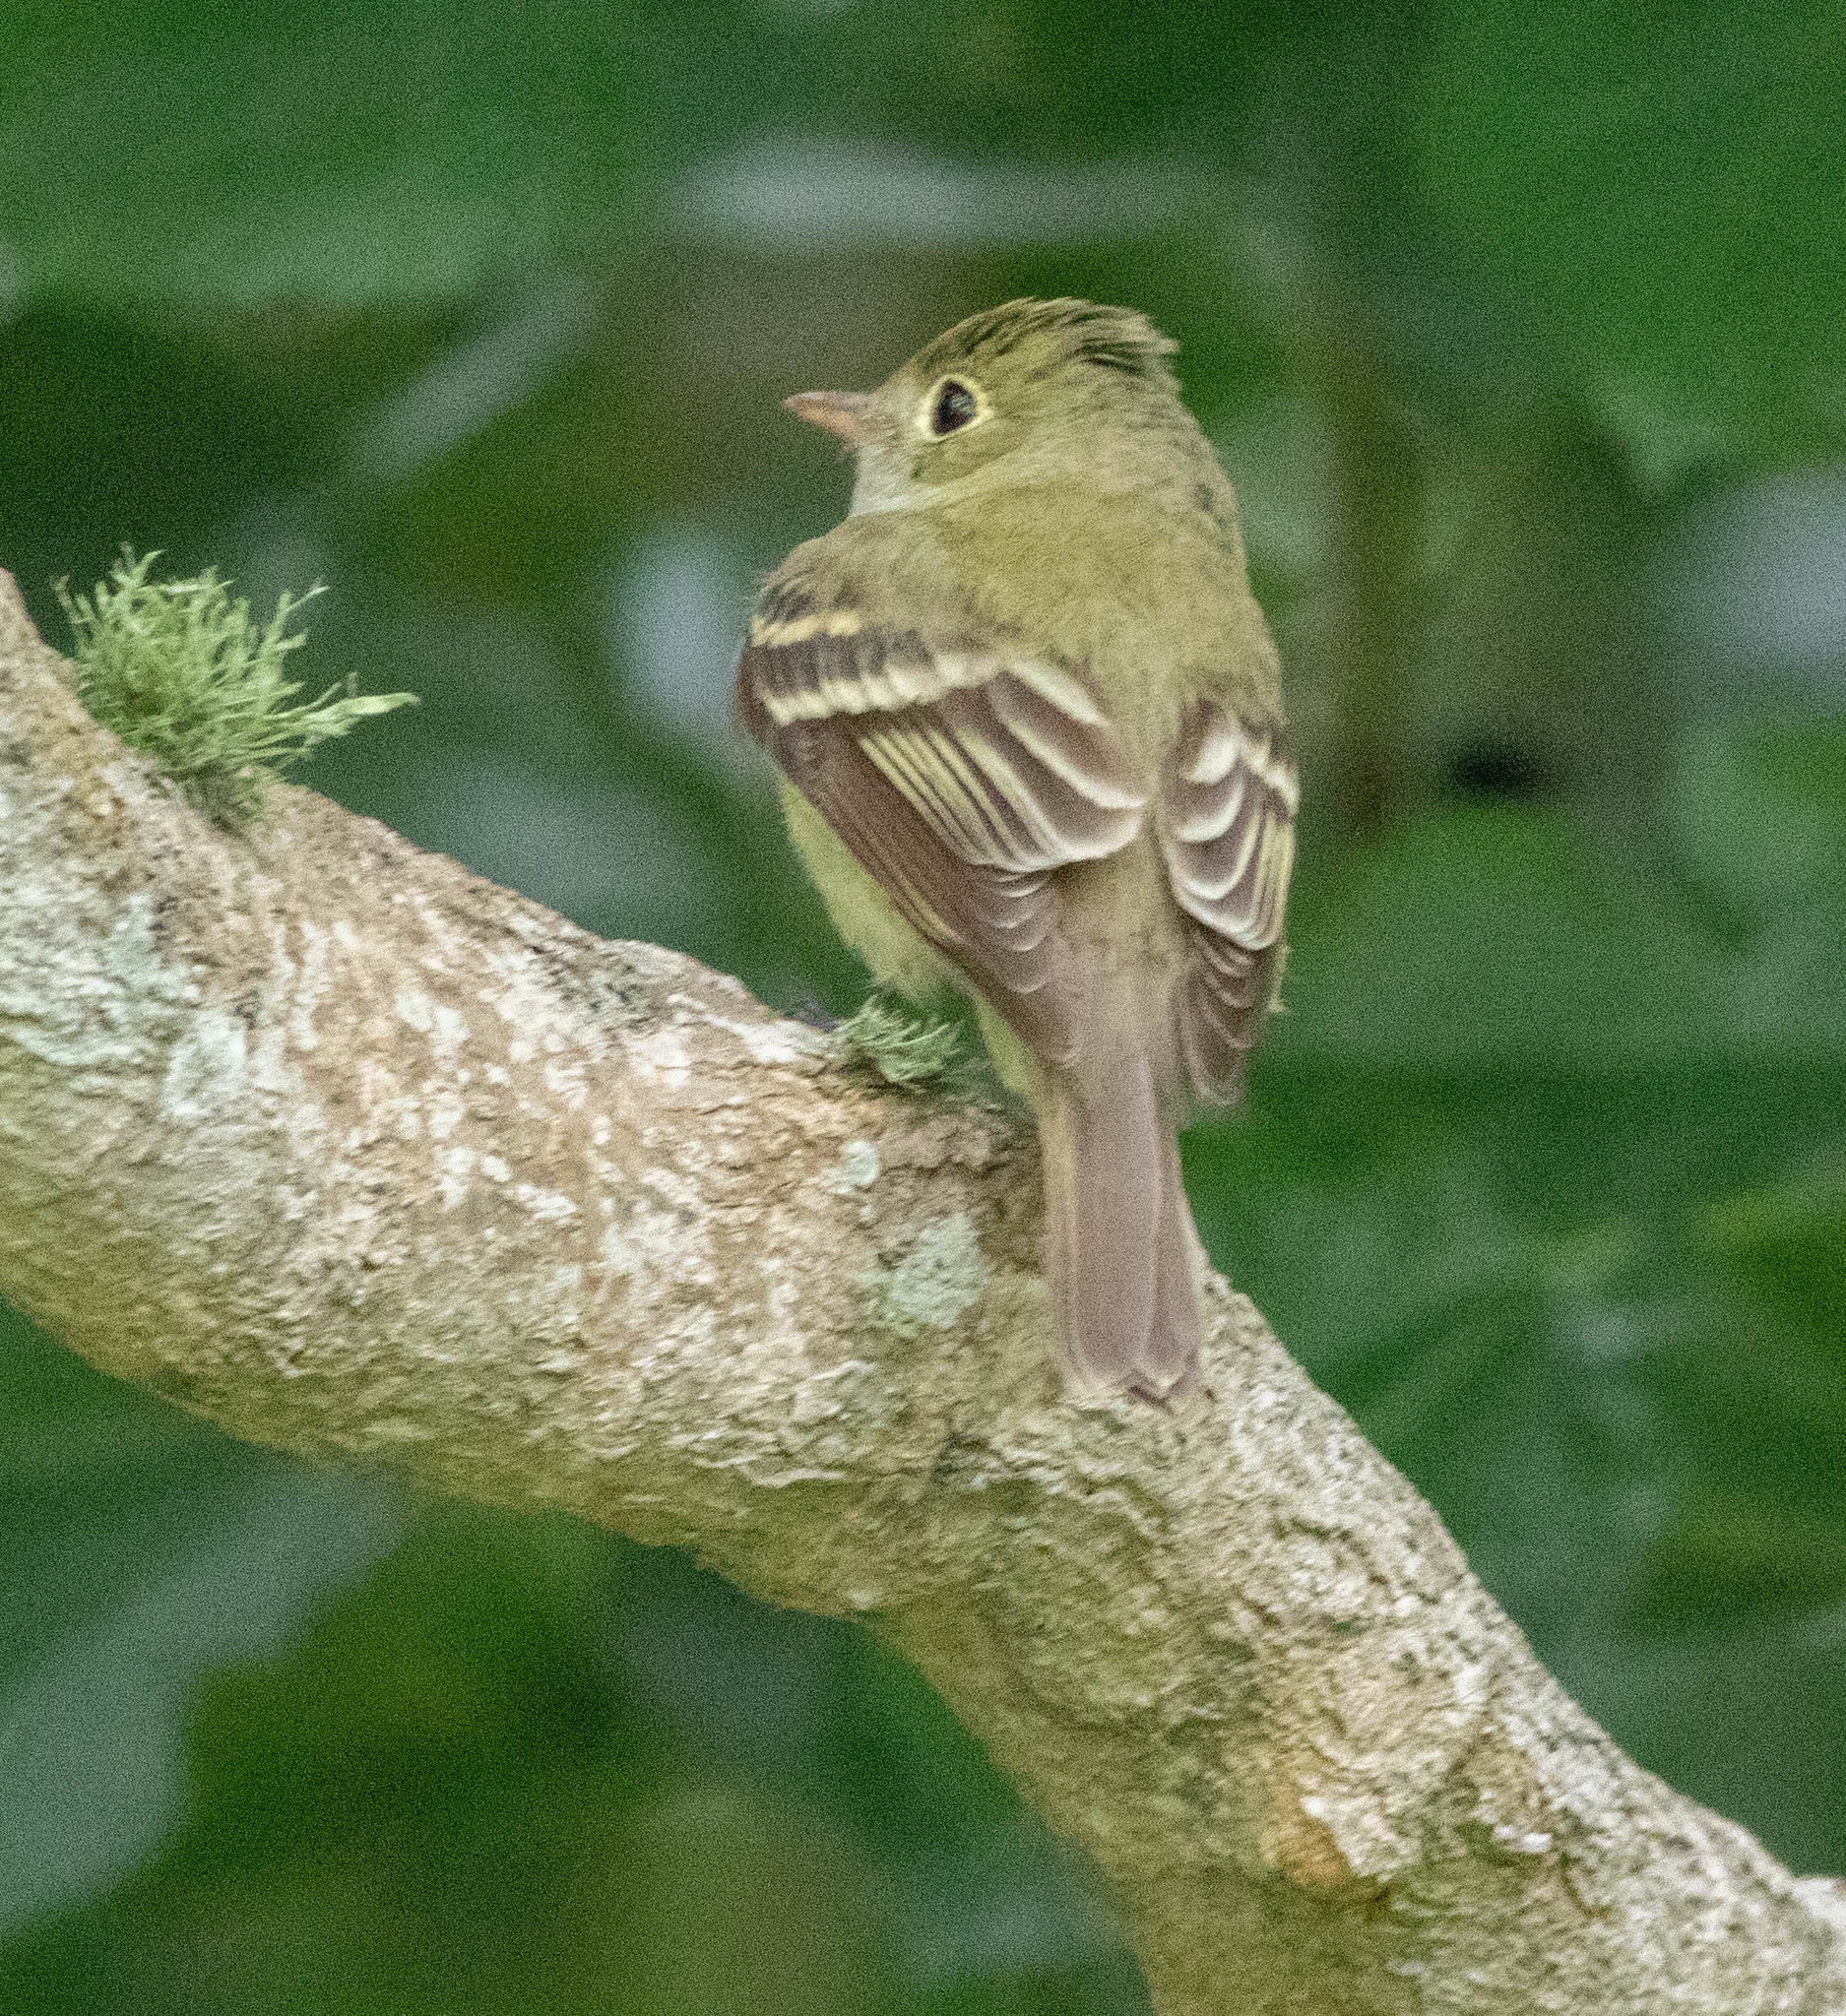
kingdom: Animalia
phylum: Chordata
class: Aves
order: Passeriformes
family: Tyrannidae
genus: Empidonax
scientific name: Empidonax virescens
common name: Acadian flycatcher
